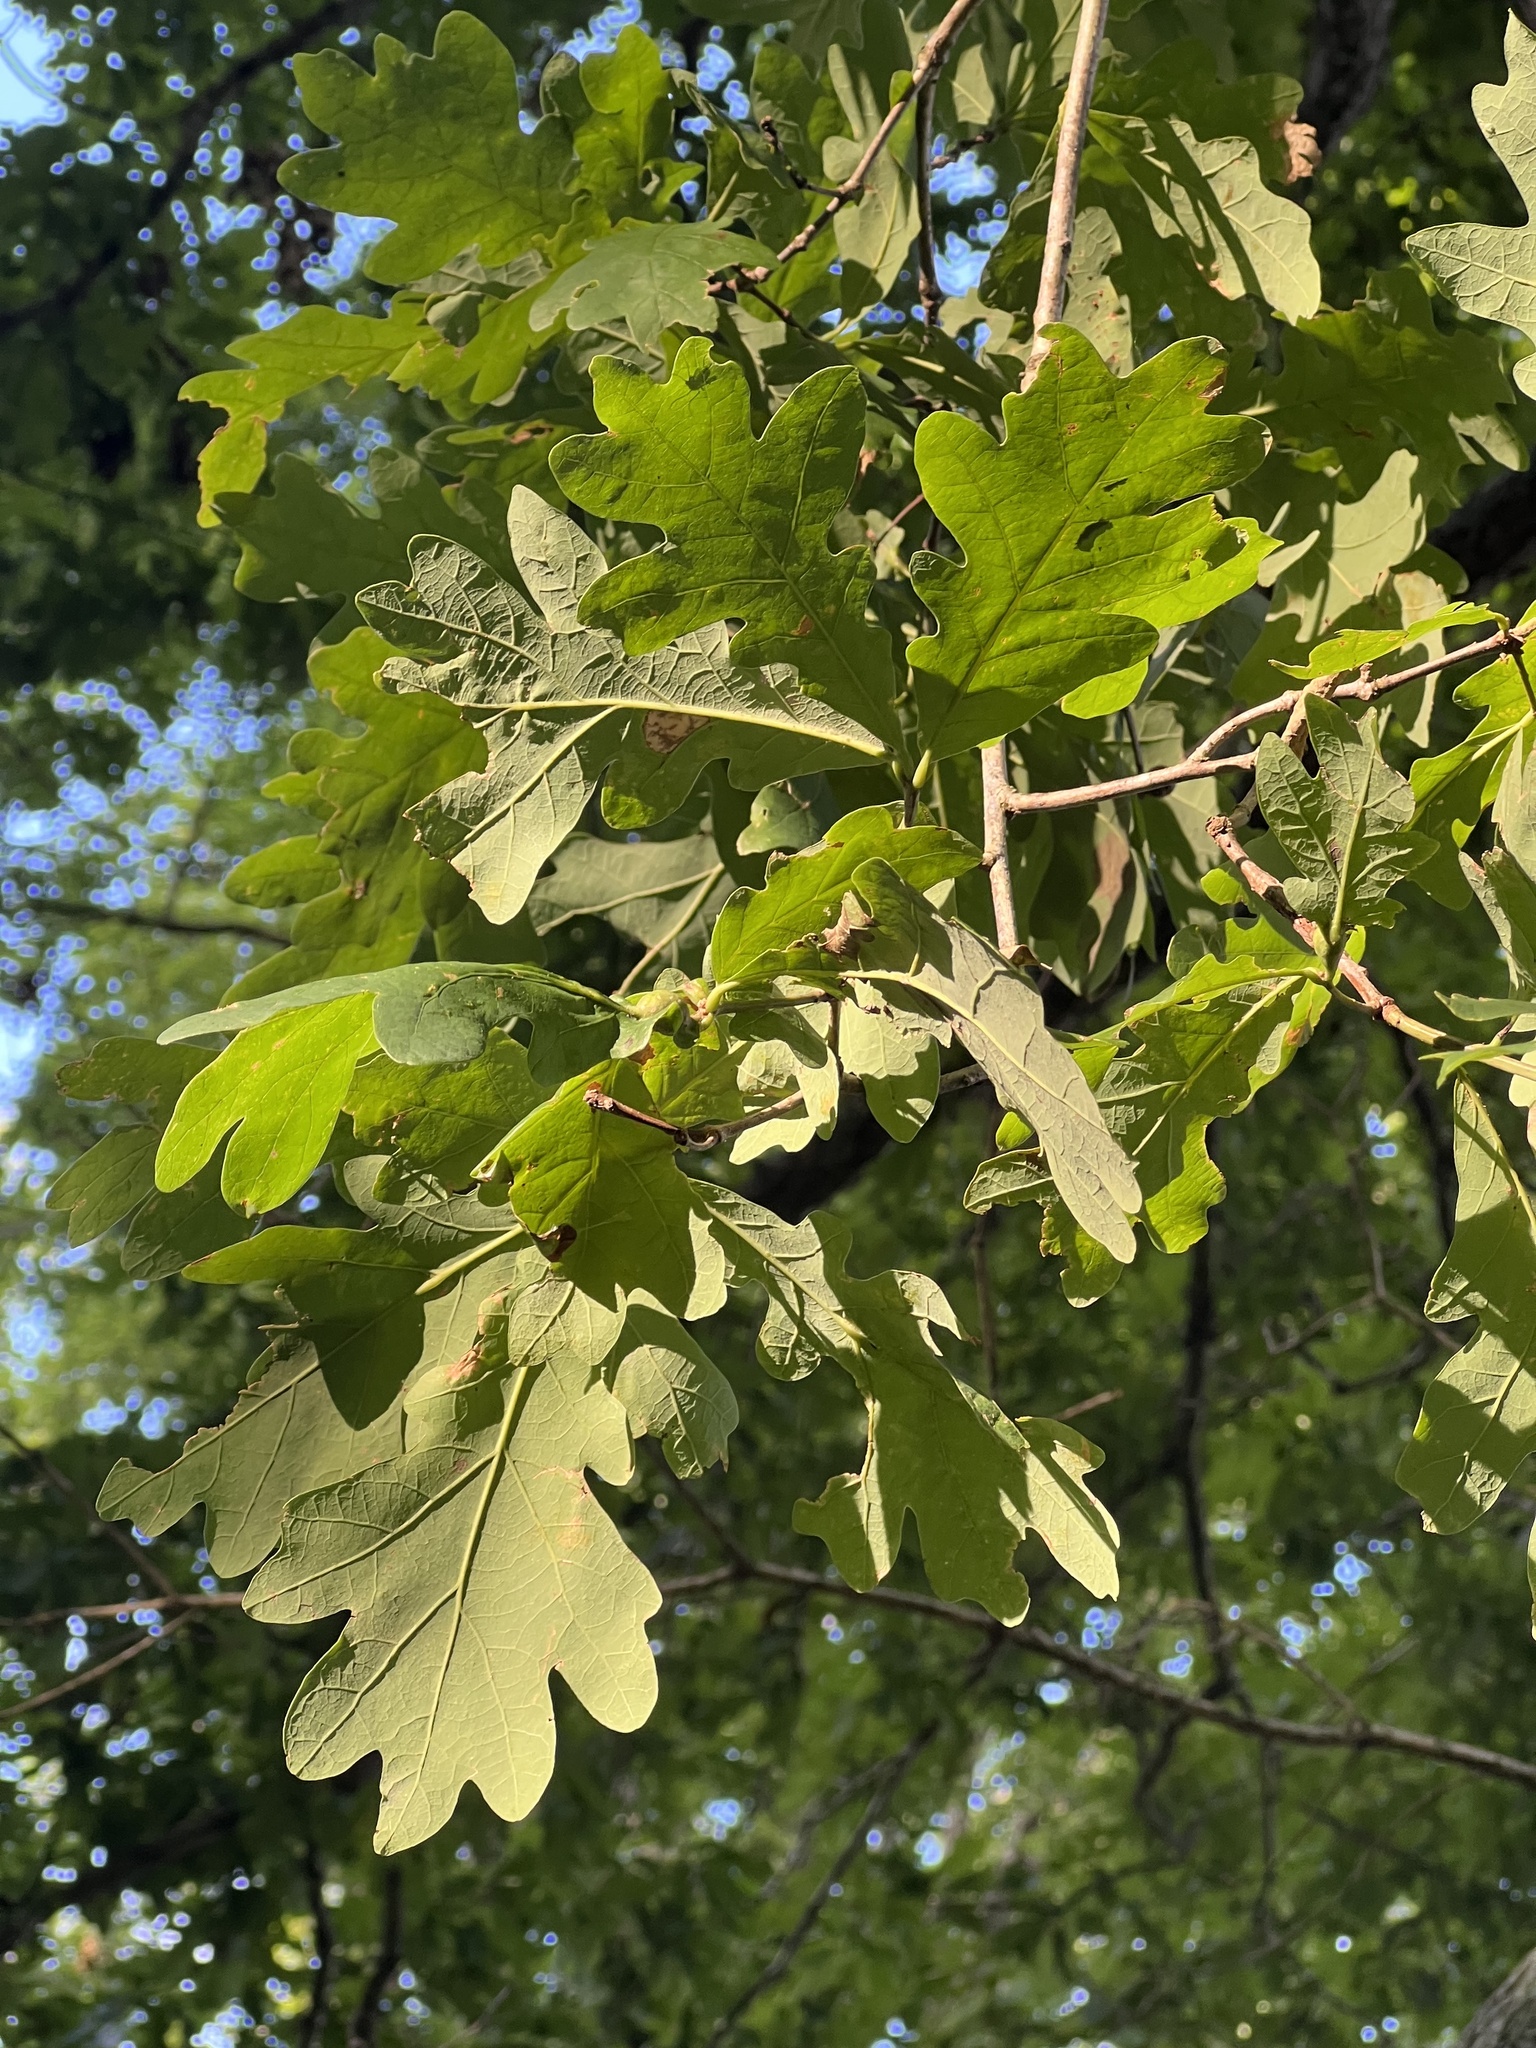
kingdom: Plantae
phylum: Tracheophyta
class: Magnoliopsida
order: Fagales
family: Fagaceae
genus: Quercus
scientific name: Quercus alba
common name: White oak
